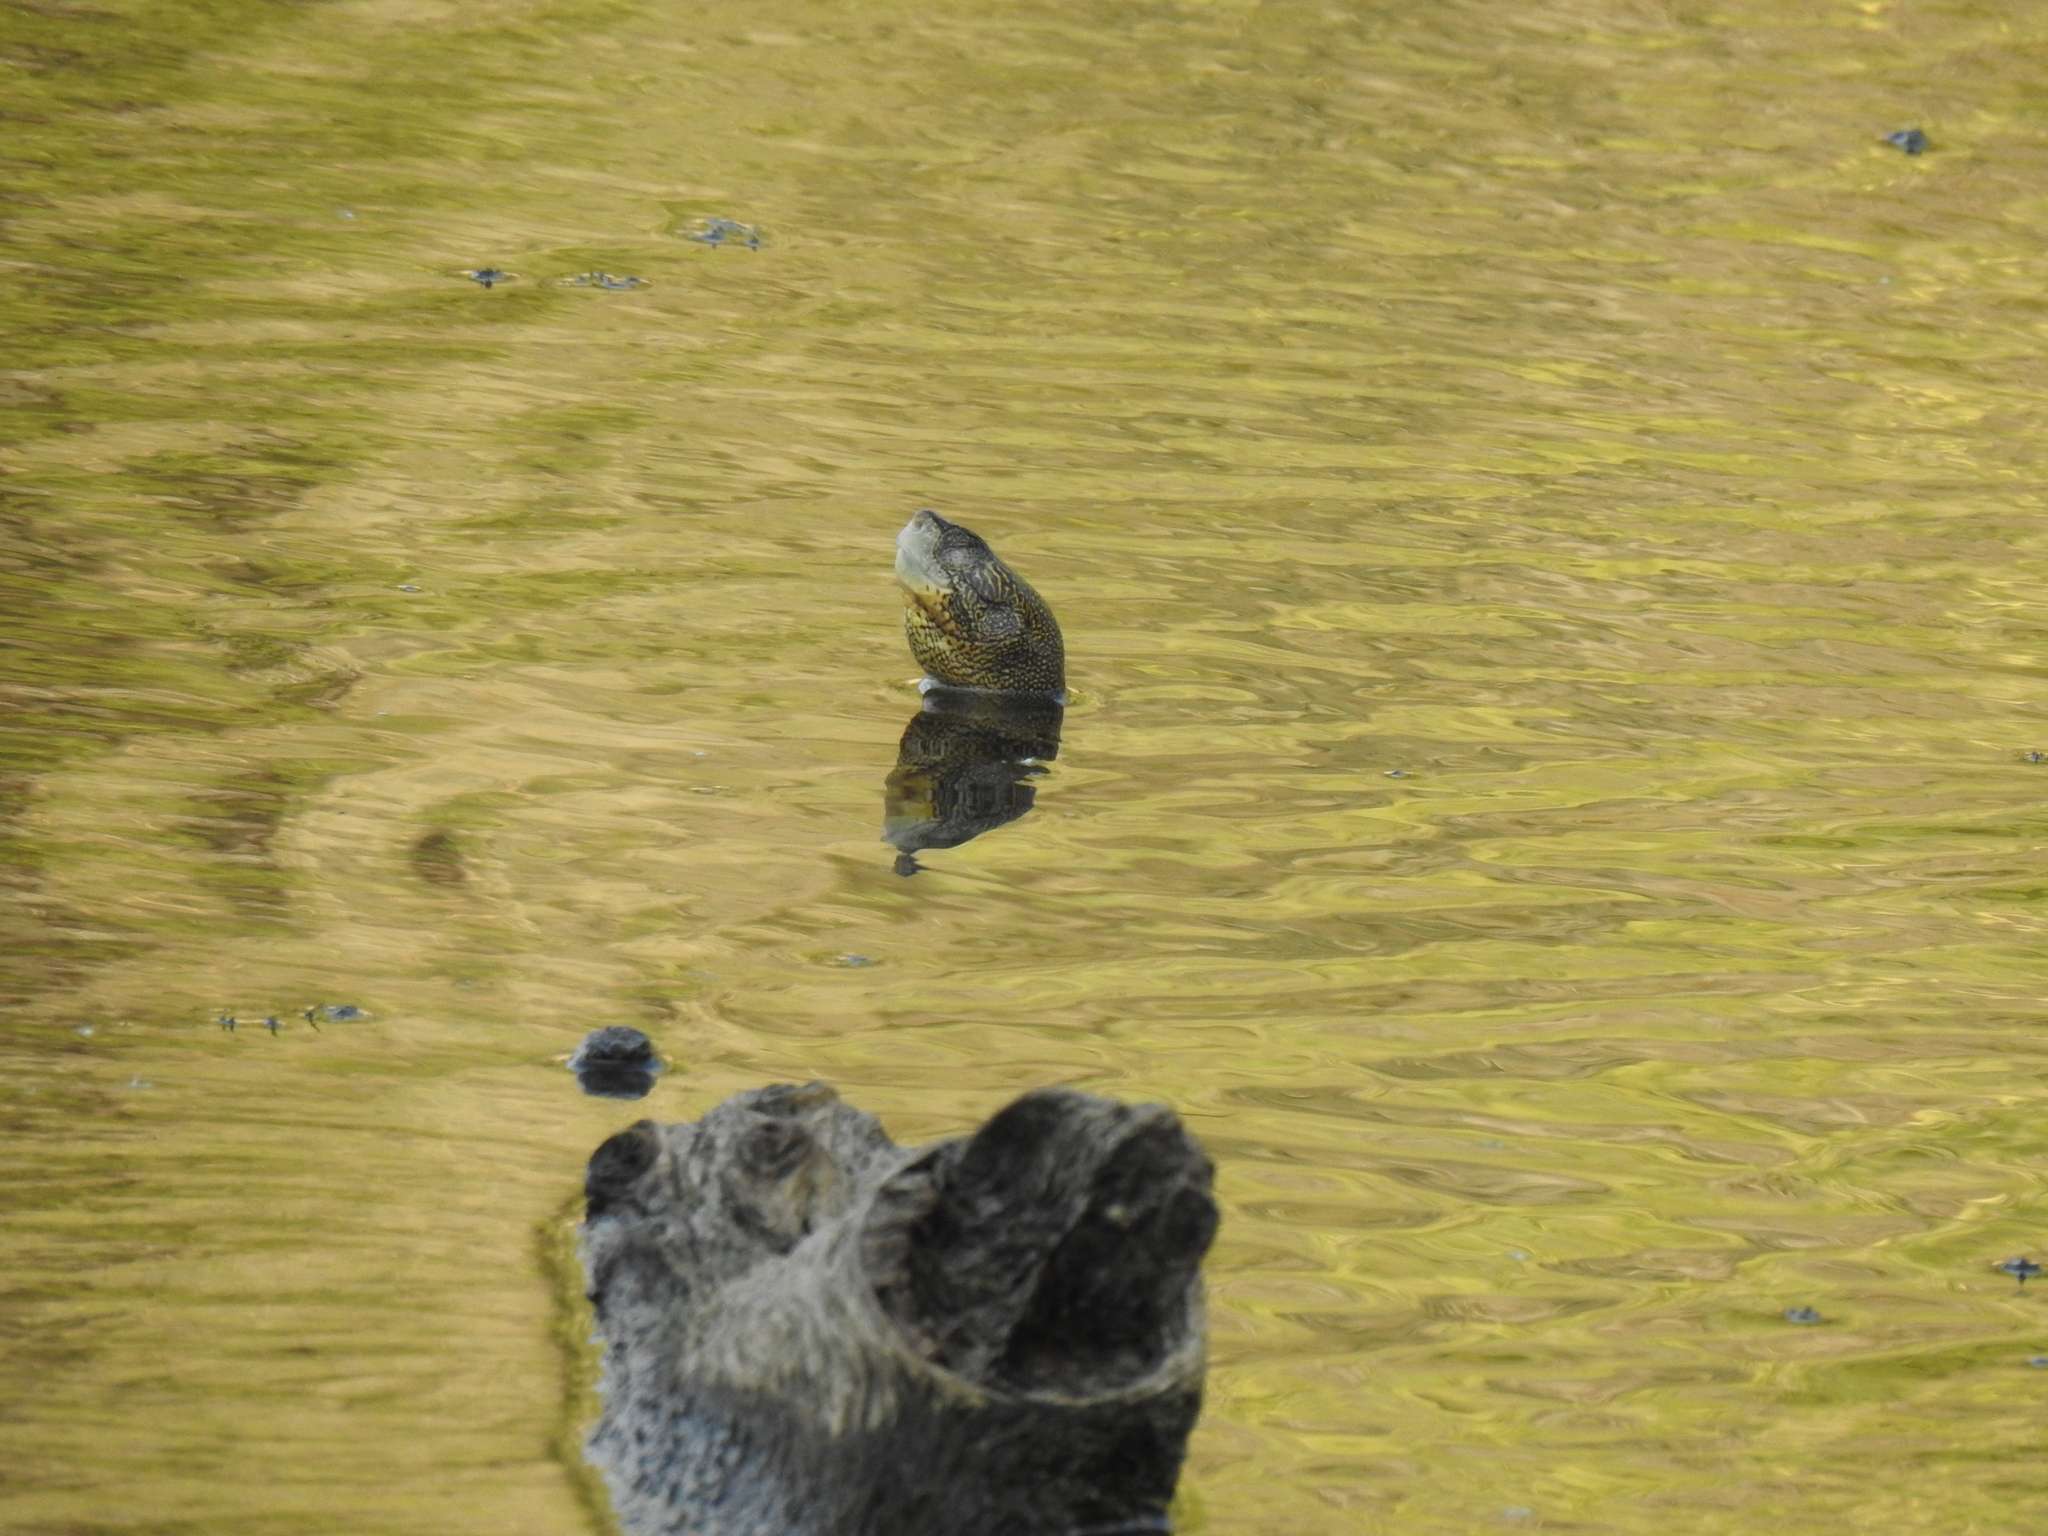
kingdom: Animalia
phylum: Chordata
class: Testudines
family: Emydidae
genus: Actinemys
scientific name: Actinemys marmorata
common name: Western pond turtle
